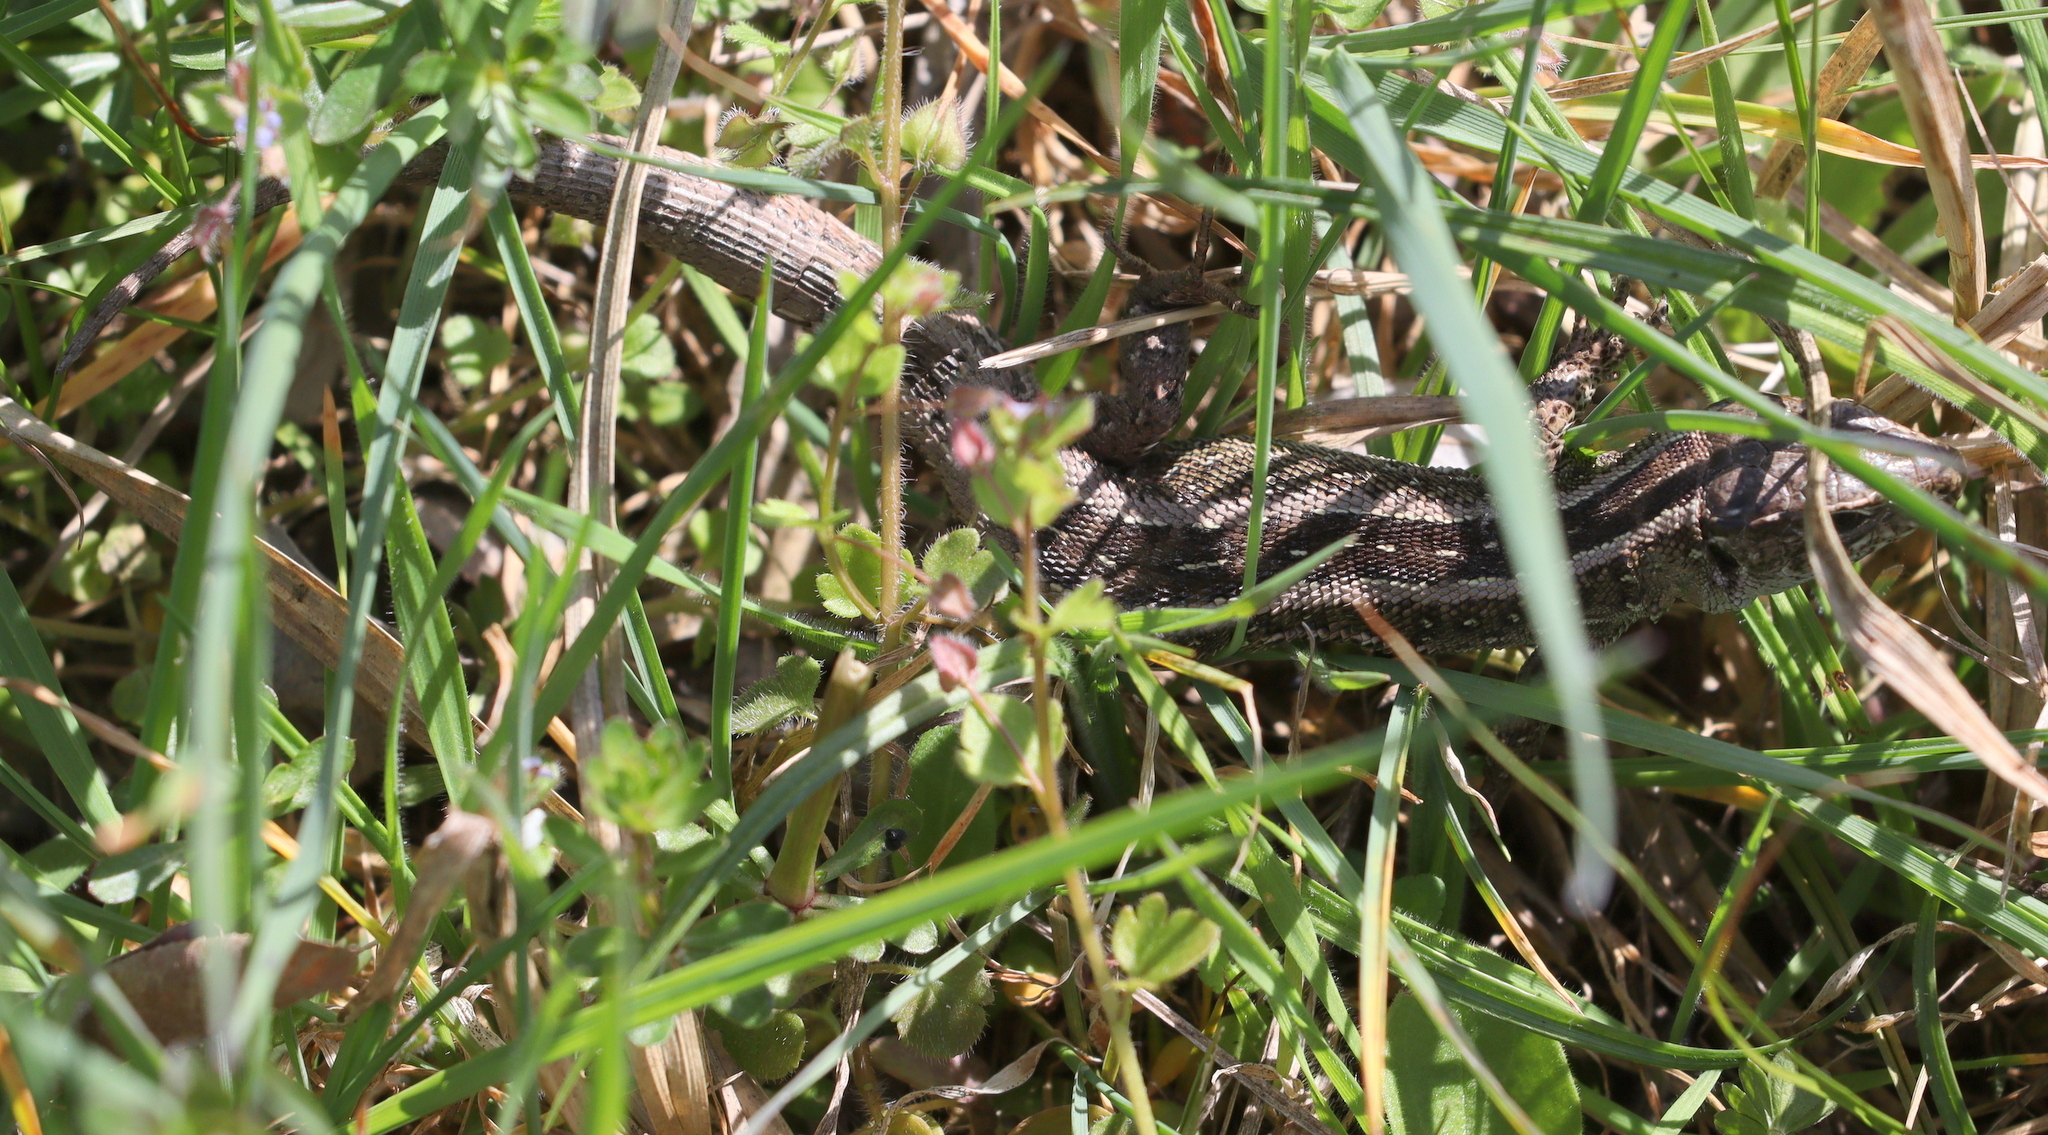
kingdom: Animalia
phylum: Chordata
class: Squamata
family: Lacertidae
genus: Lacerta
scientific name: Lacerta agilis
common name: Sand lizard
